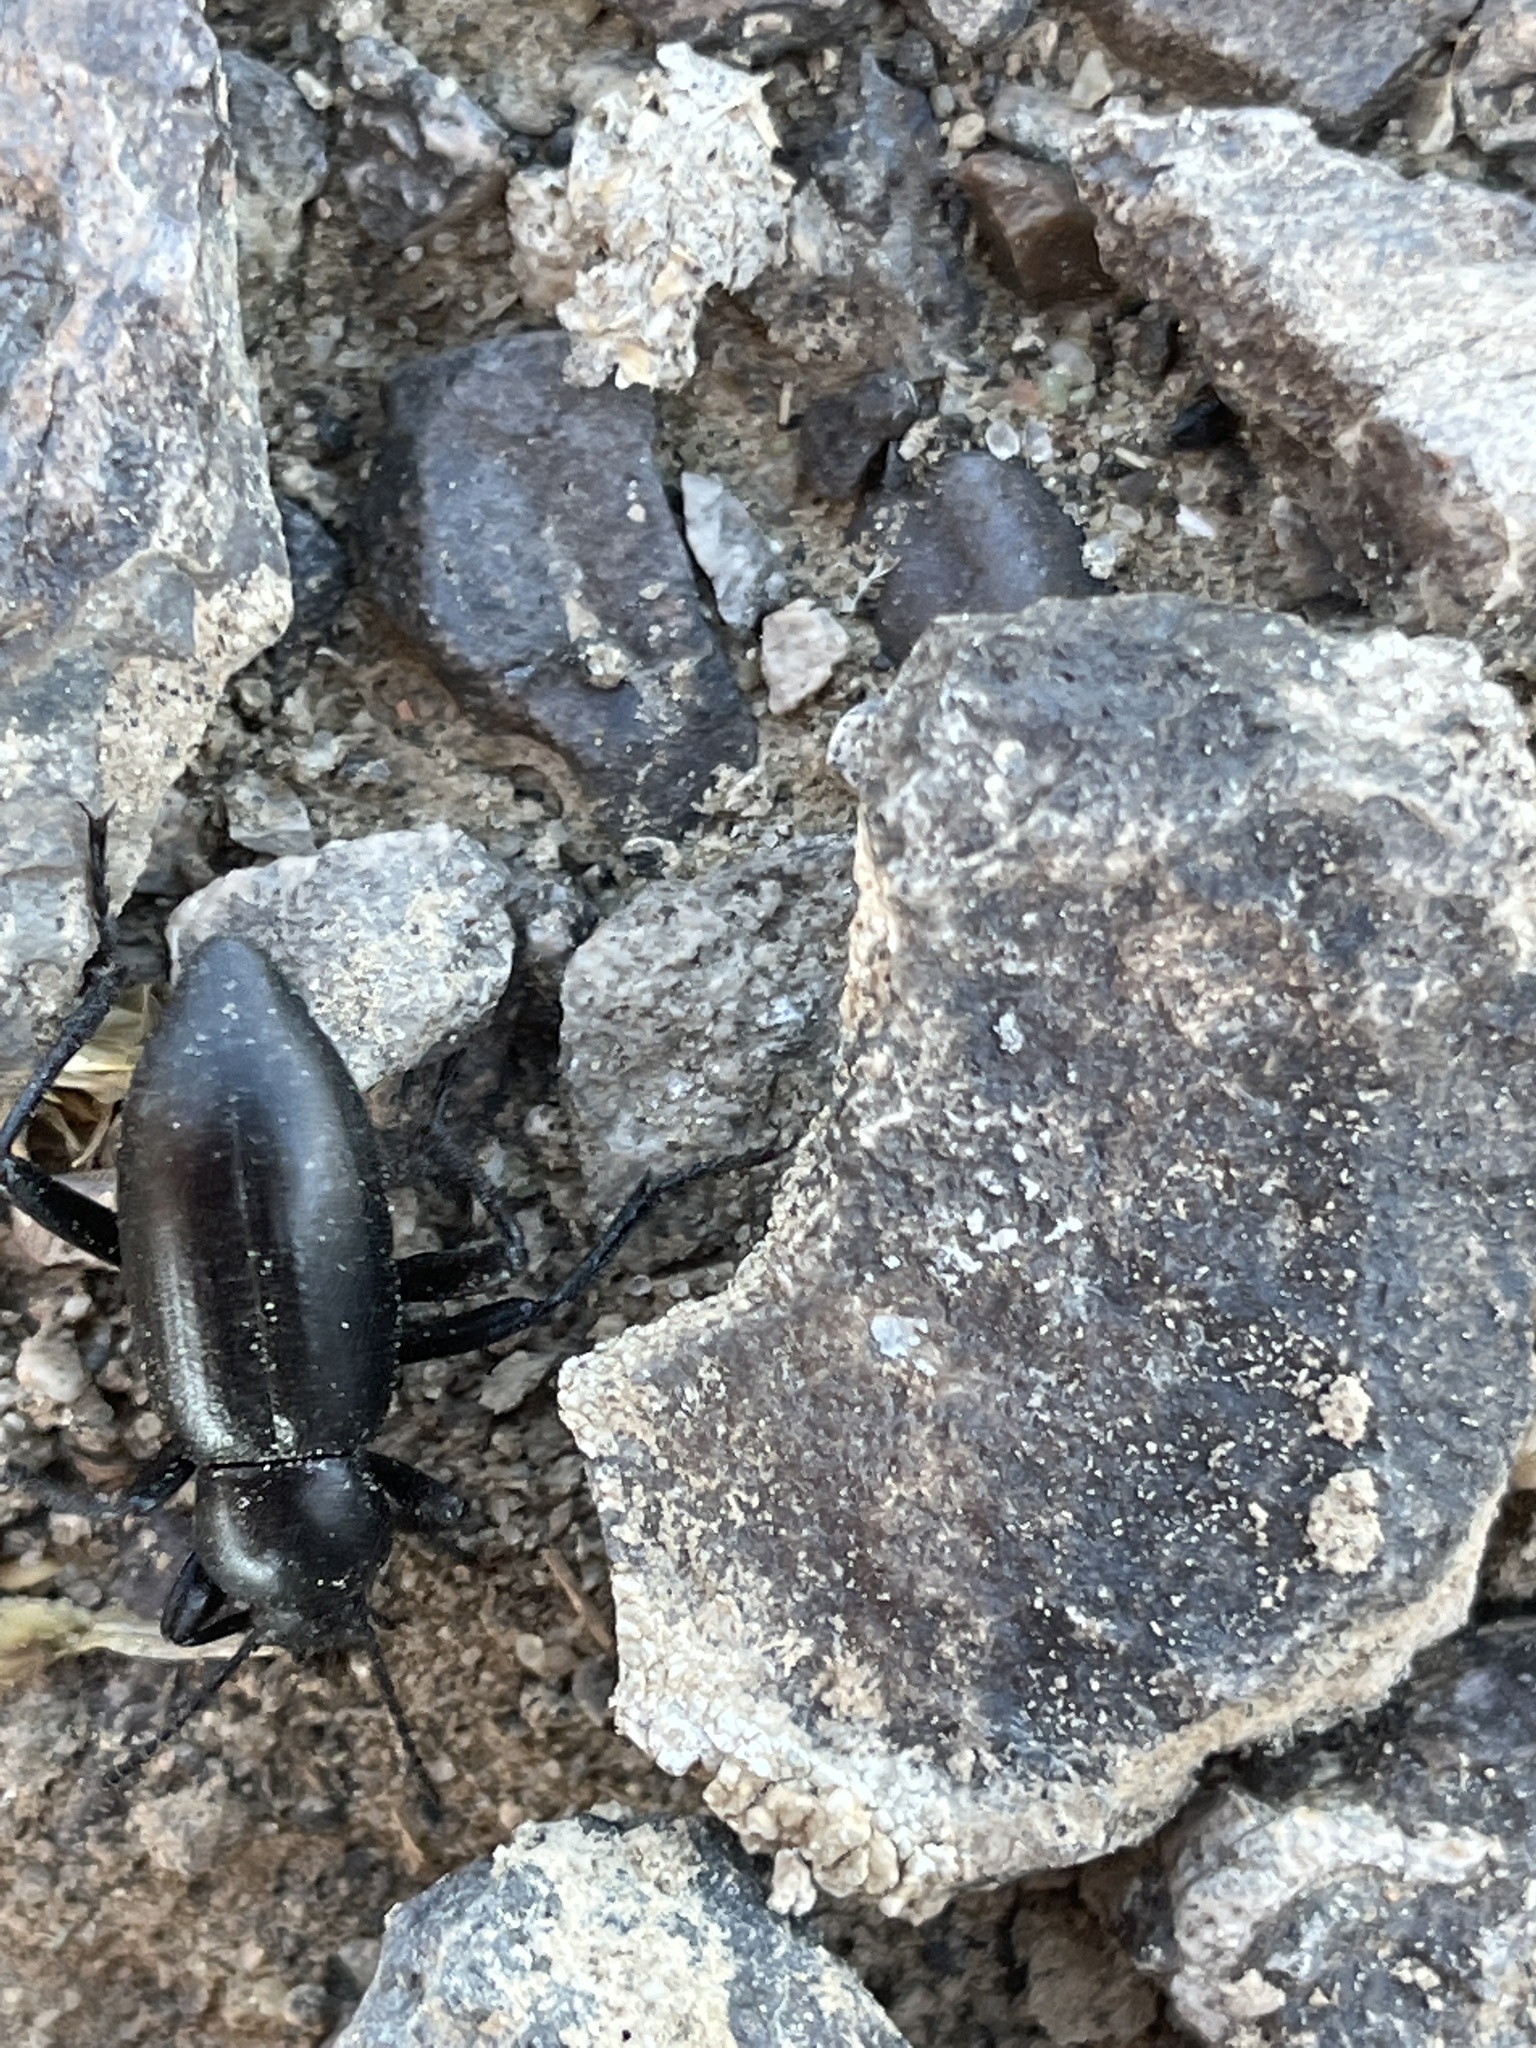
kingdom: Animalia
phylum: Arthropoda
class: Insecta
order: Coleoptera
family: Tenebrionidae
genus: Eleodes
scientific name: Eleodes nigrina
